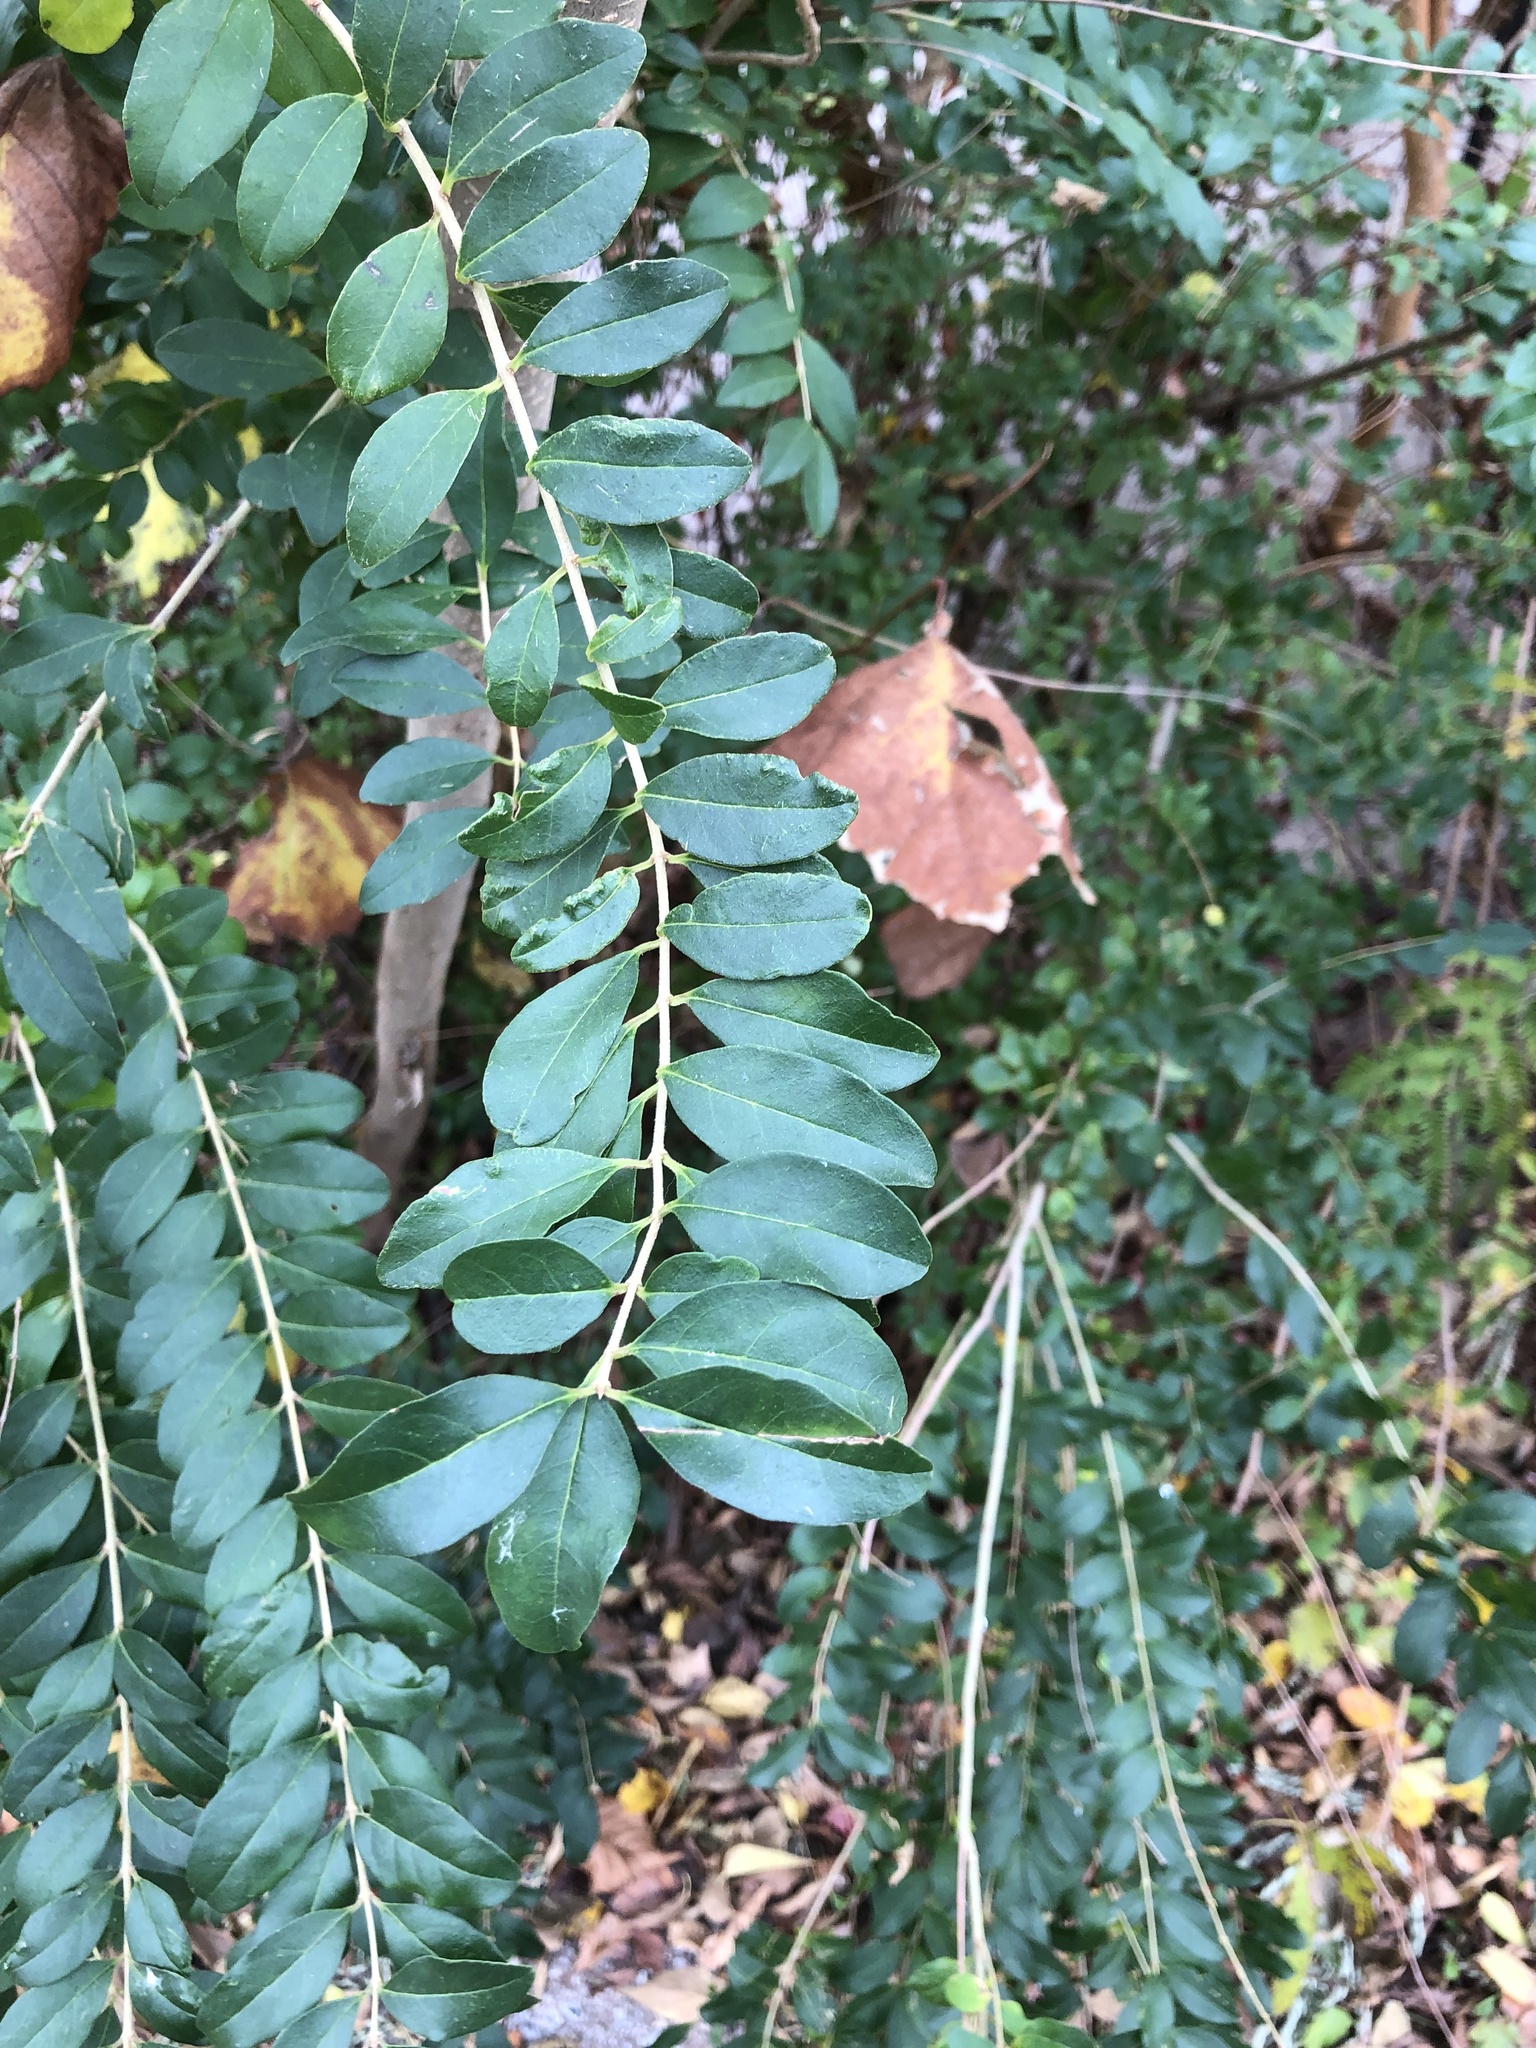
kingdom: Plantae
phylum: Tracheophyta
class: Magnoliopsida
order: Lamiales
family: Oleaceae
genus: Ligustrum
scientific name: Ligustrum sinense
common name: Chinese privet
